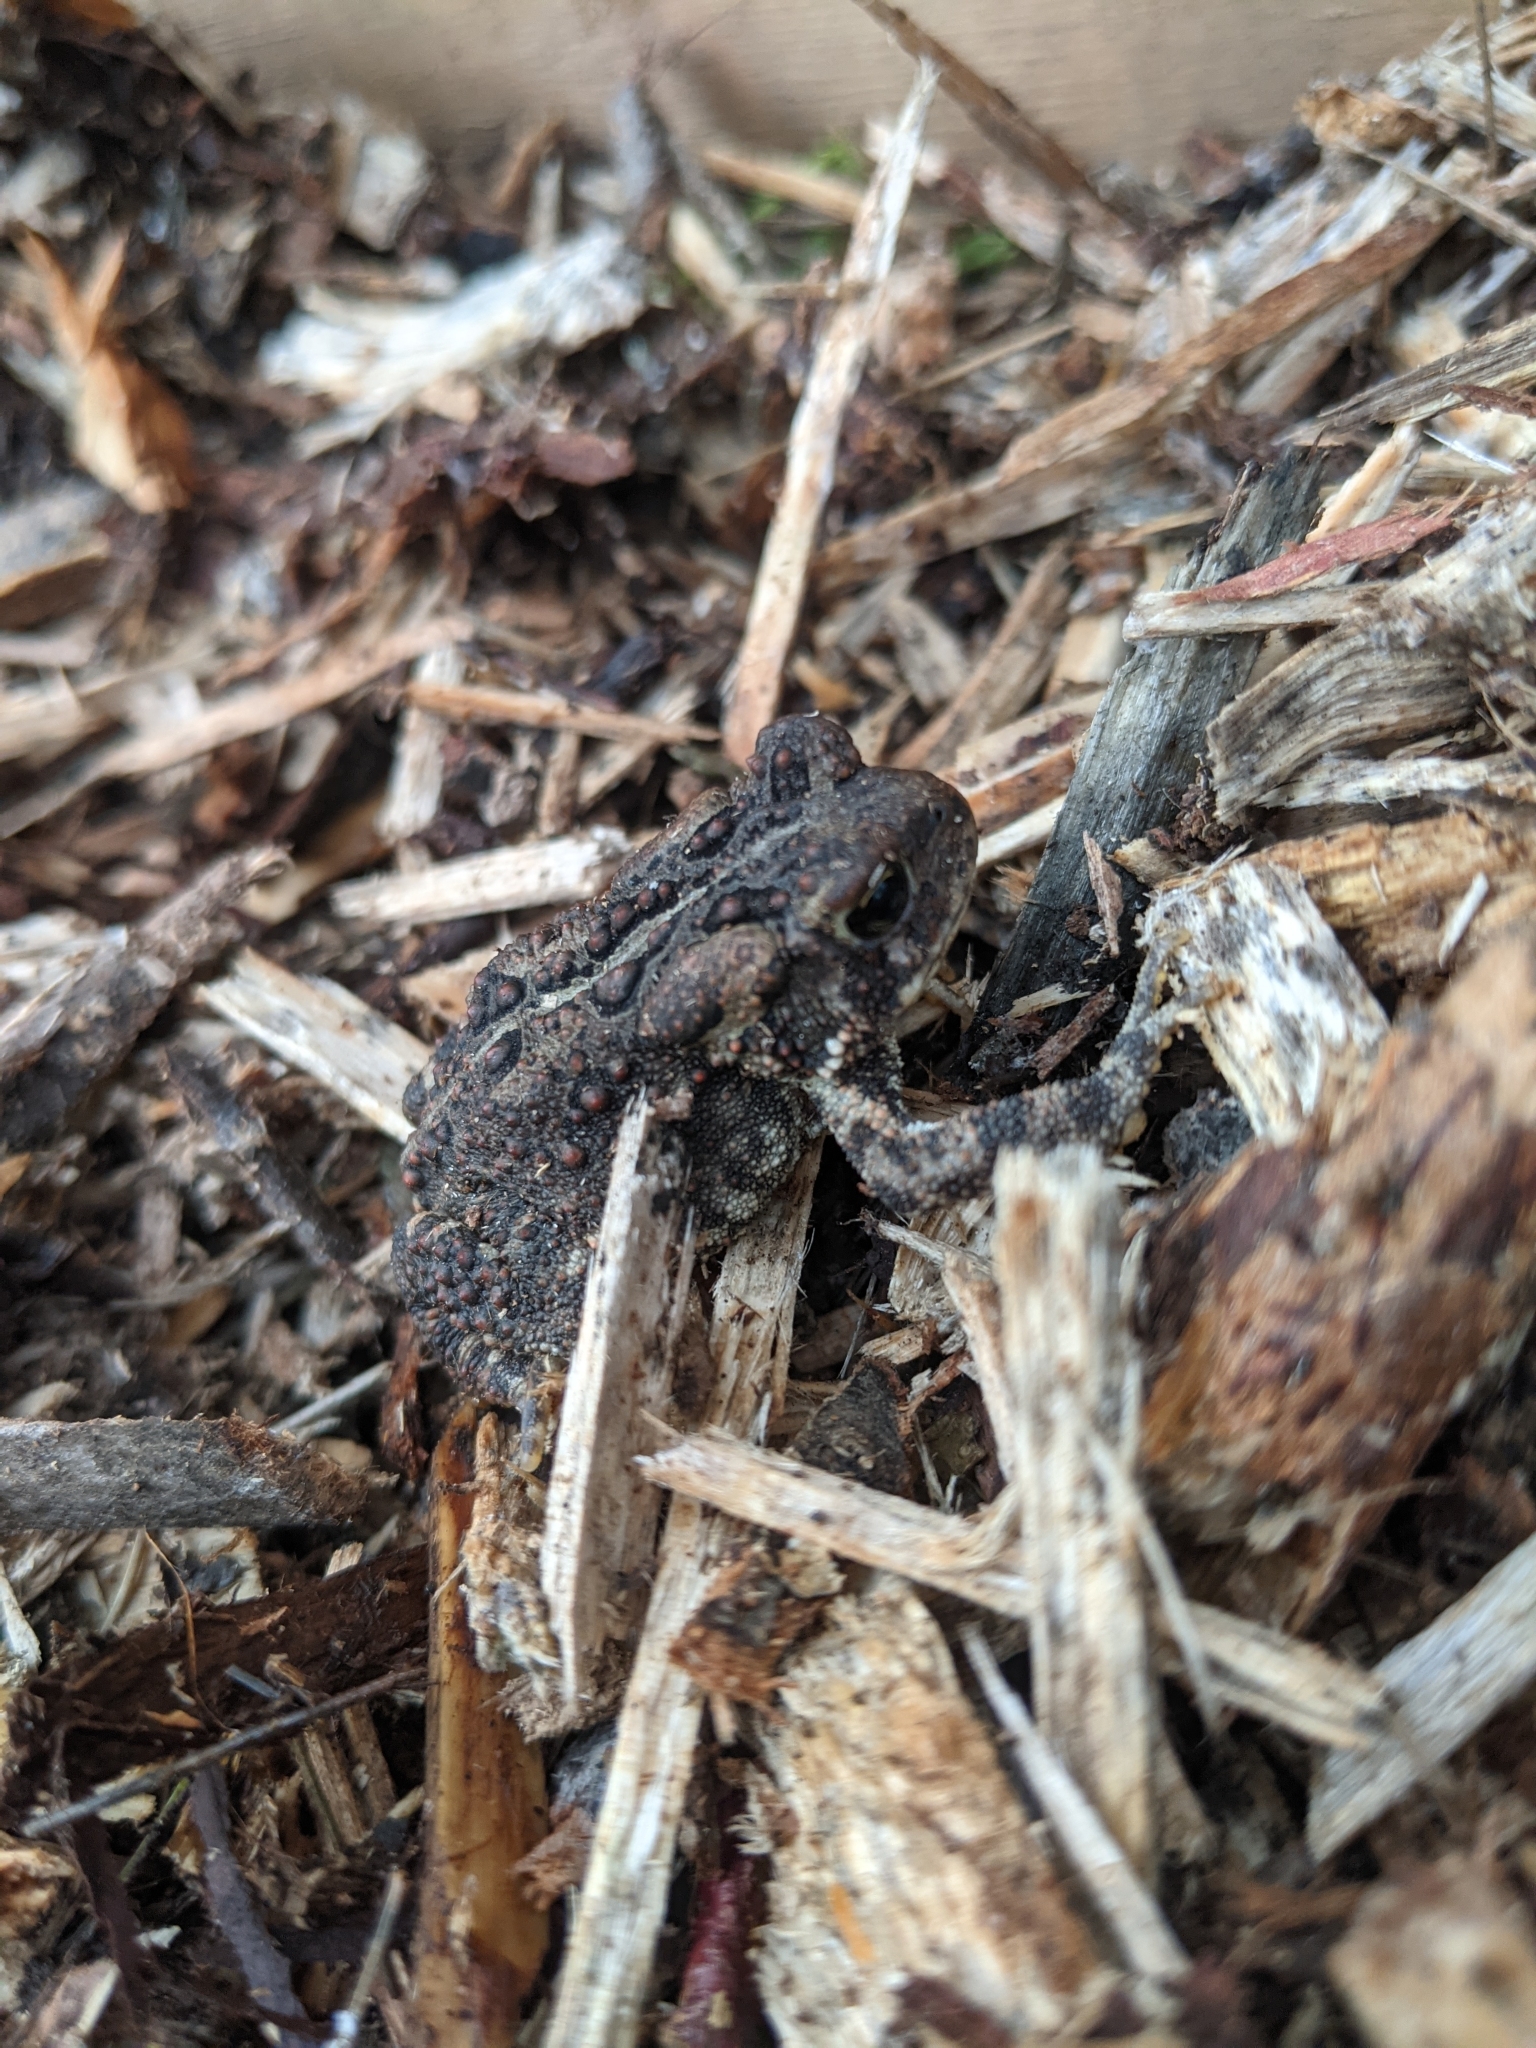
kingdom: Animalia
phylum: Chordata
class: Amphibia
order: Anura
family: Bufonidae
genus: Anaxyrus
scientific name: Anaxyrus americanus
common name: American toad
